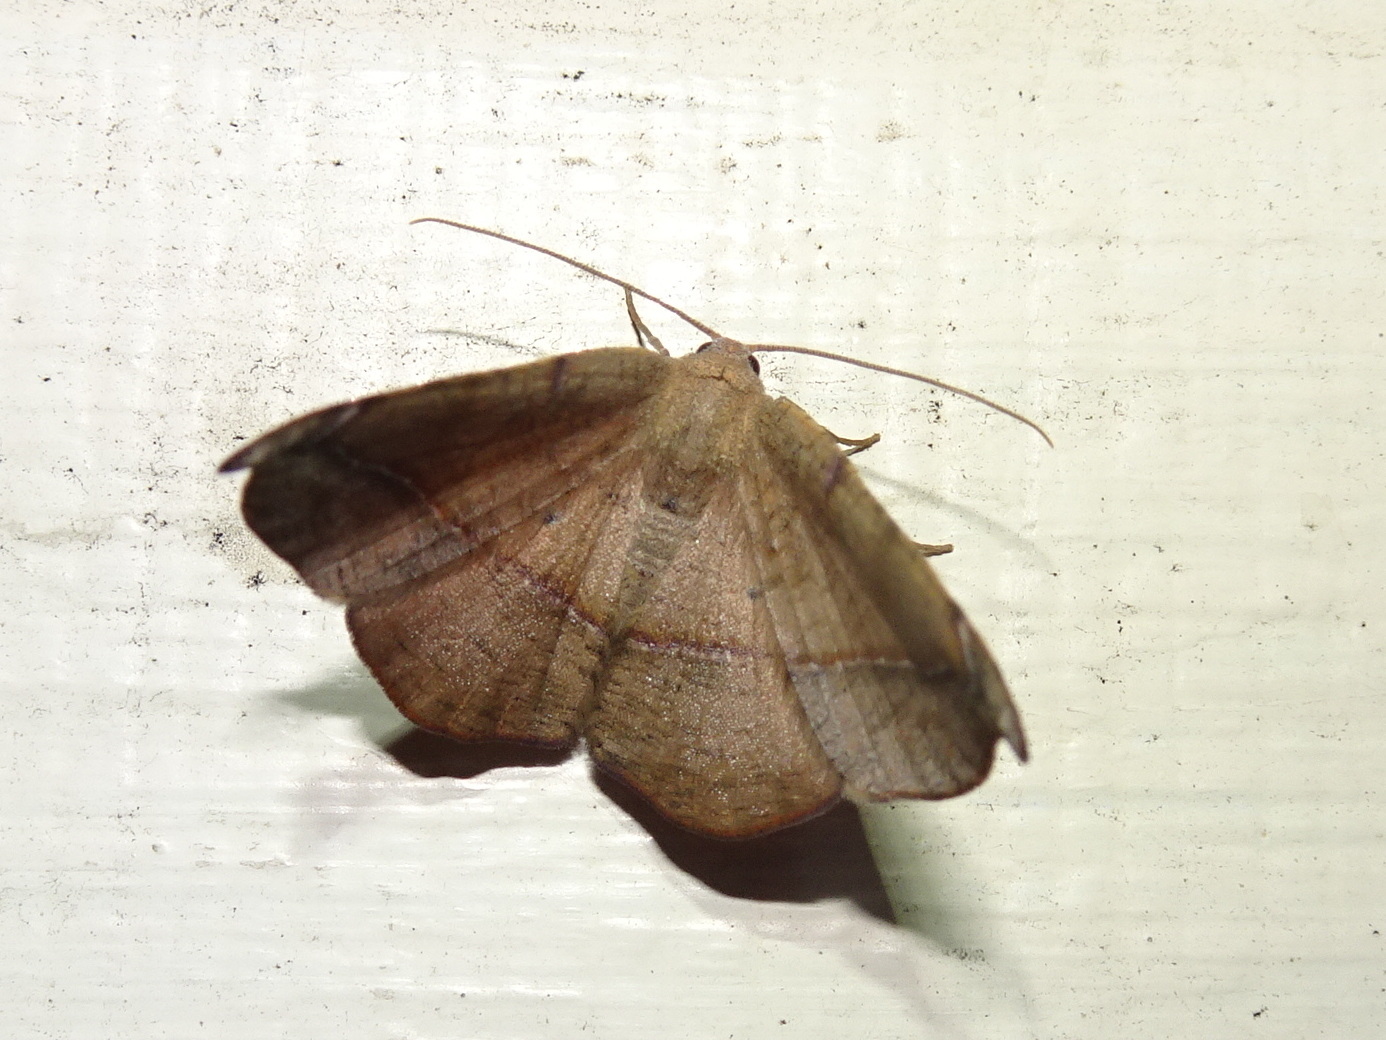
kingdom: Animalia
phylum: Arthropoda
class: Insecta
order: Lepidoptera
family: Geometridae
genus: Patalene
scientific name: Patalene olyzonaria
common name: Juniper geometer moth
